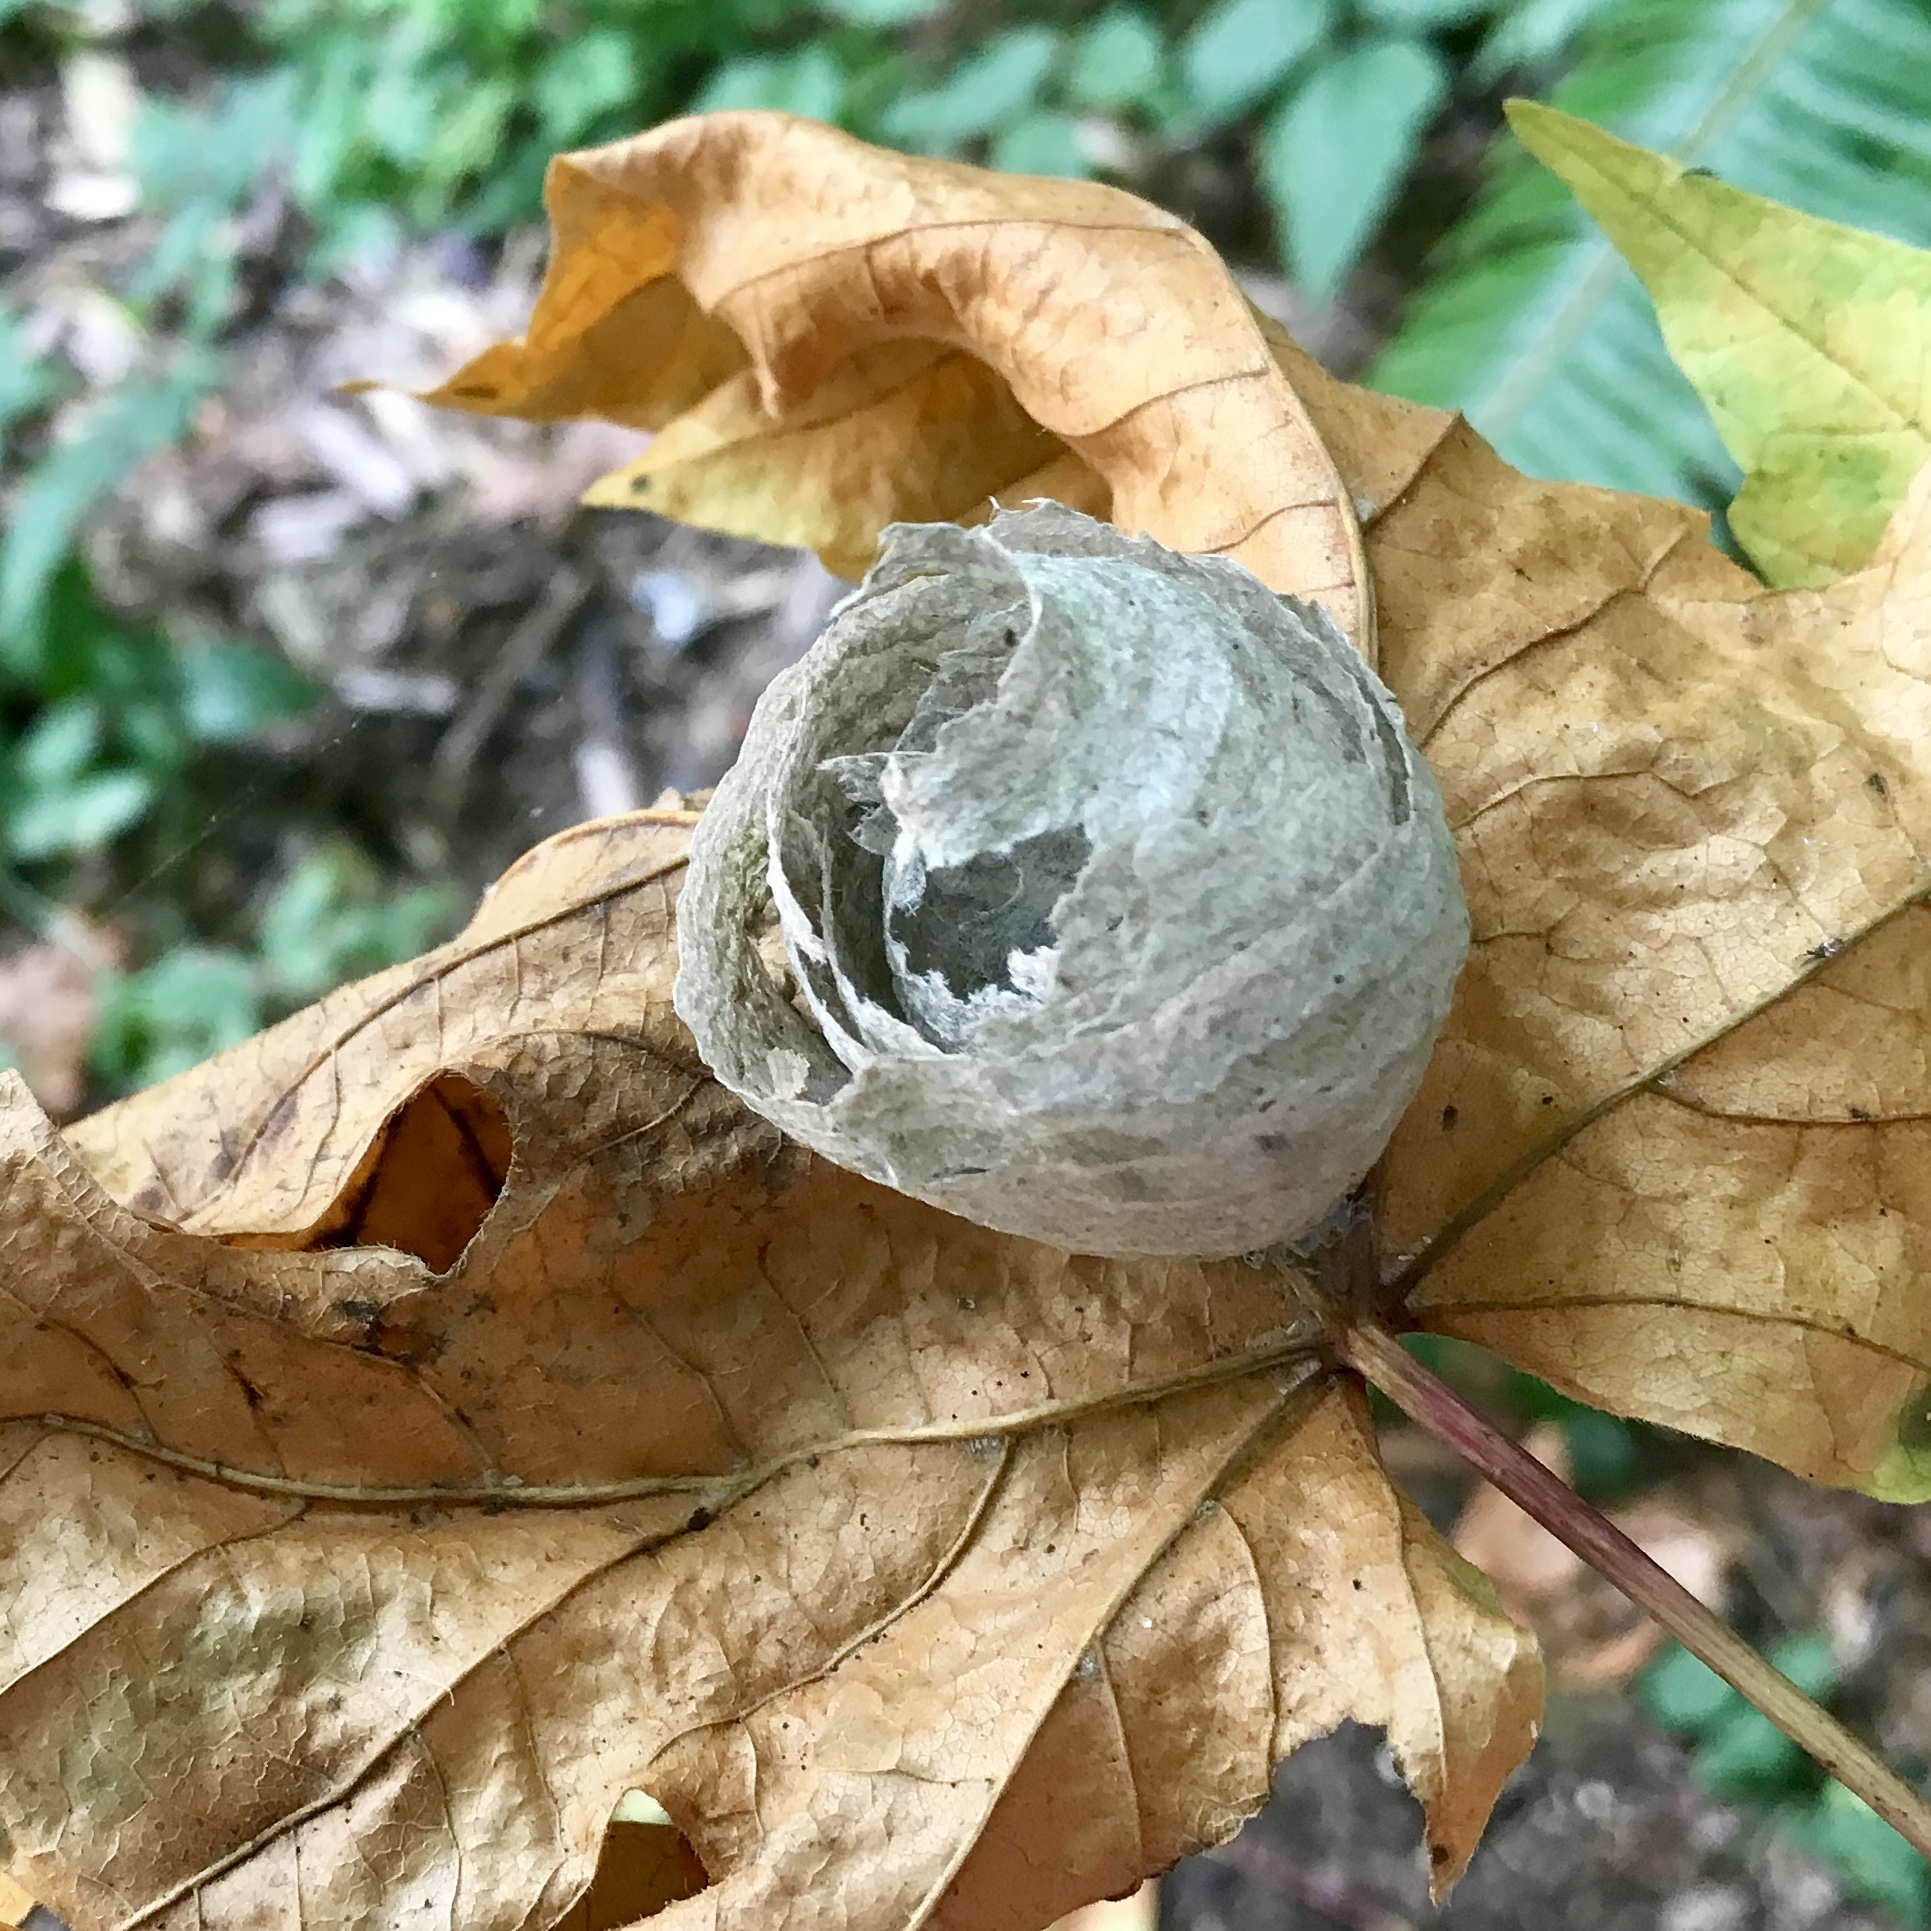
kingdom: Animalia
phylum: Arthropoda
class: Insecta
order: Hymenoptera
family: Vespidae
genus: Dolichovespula
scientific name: Dolichovespula
